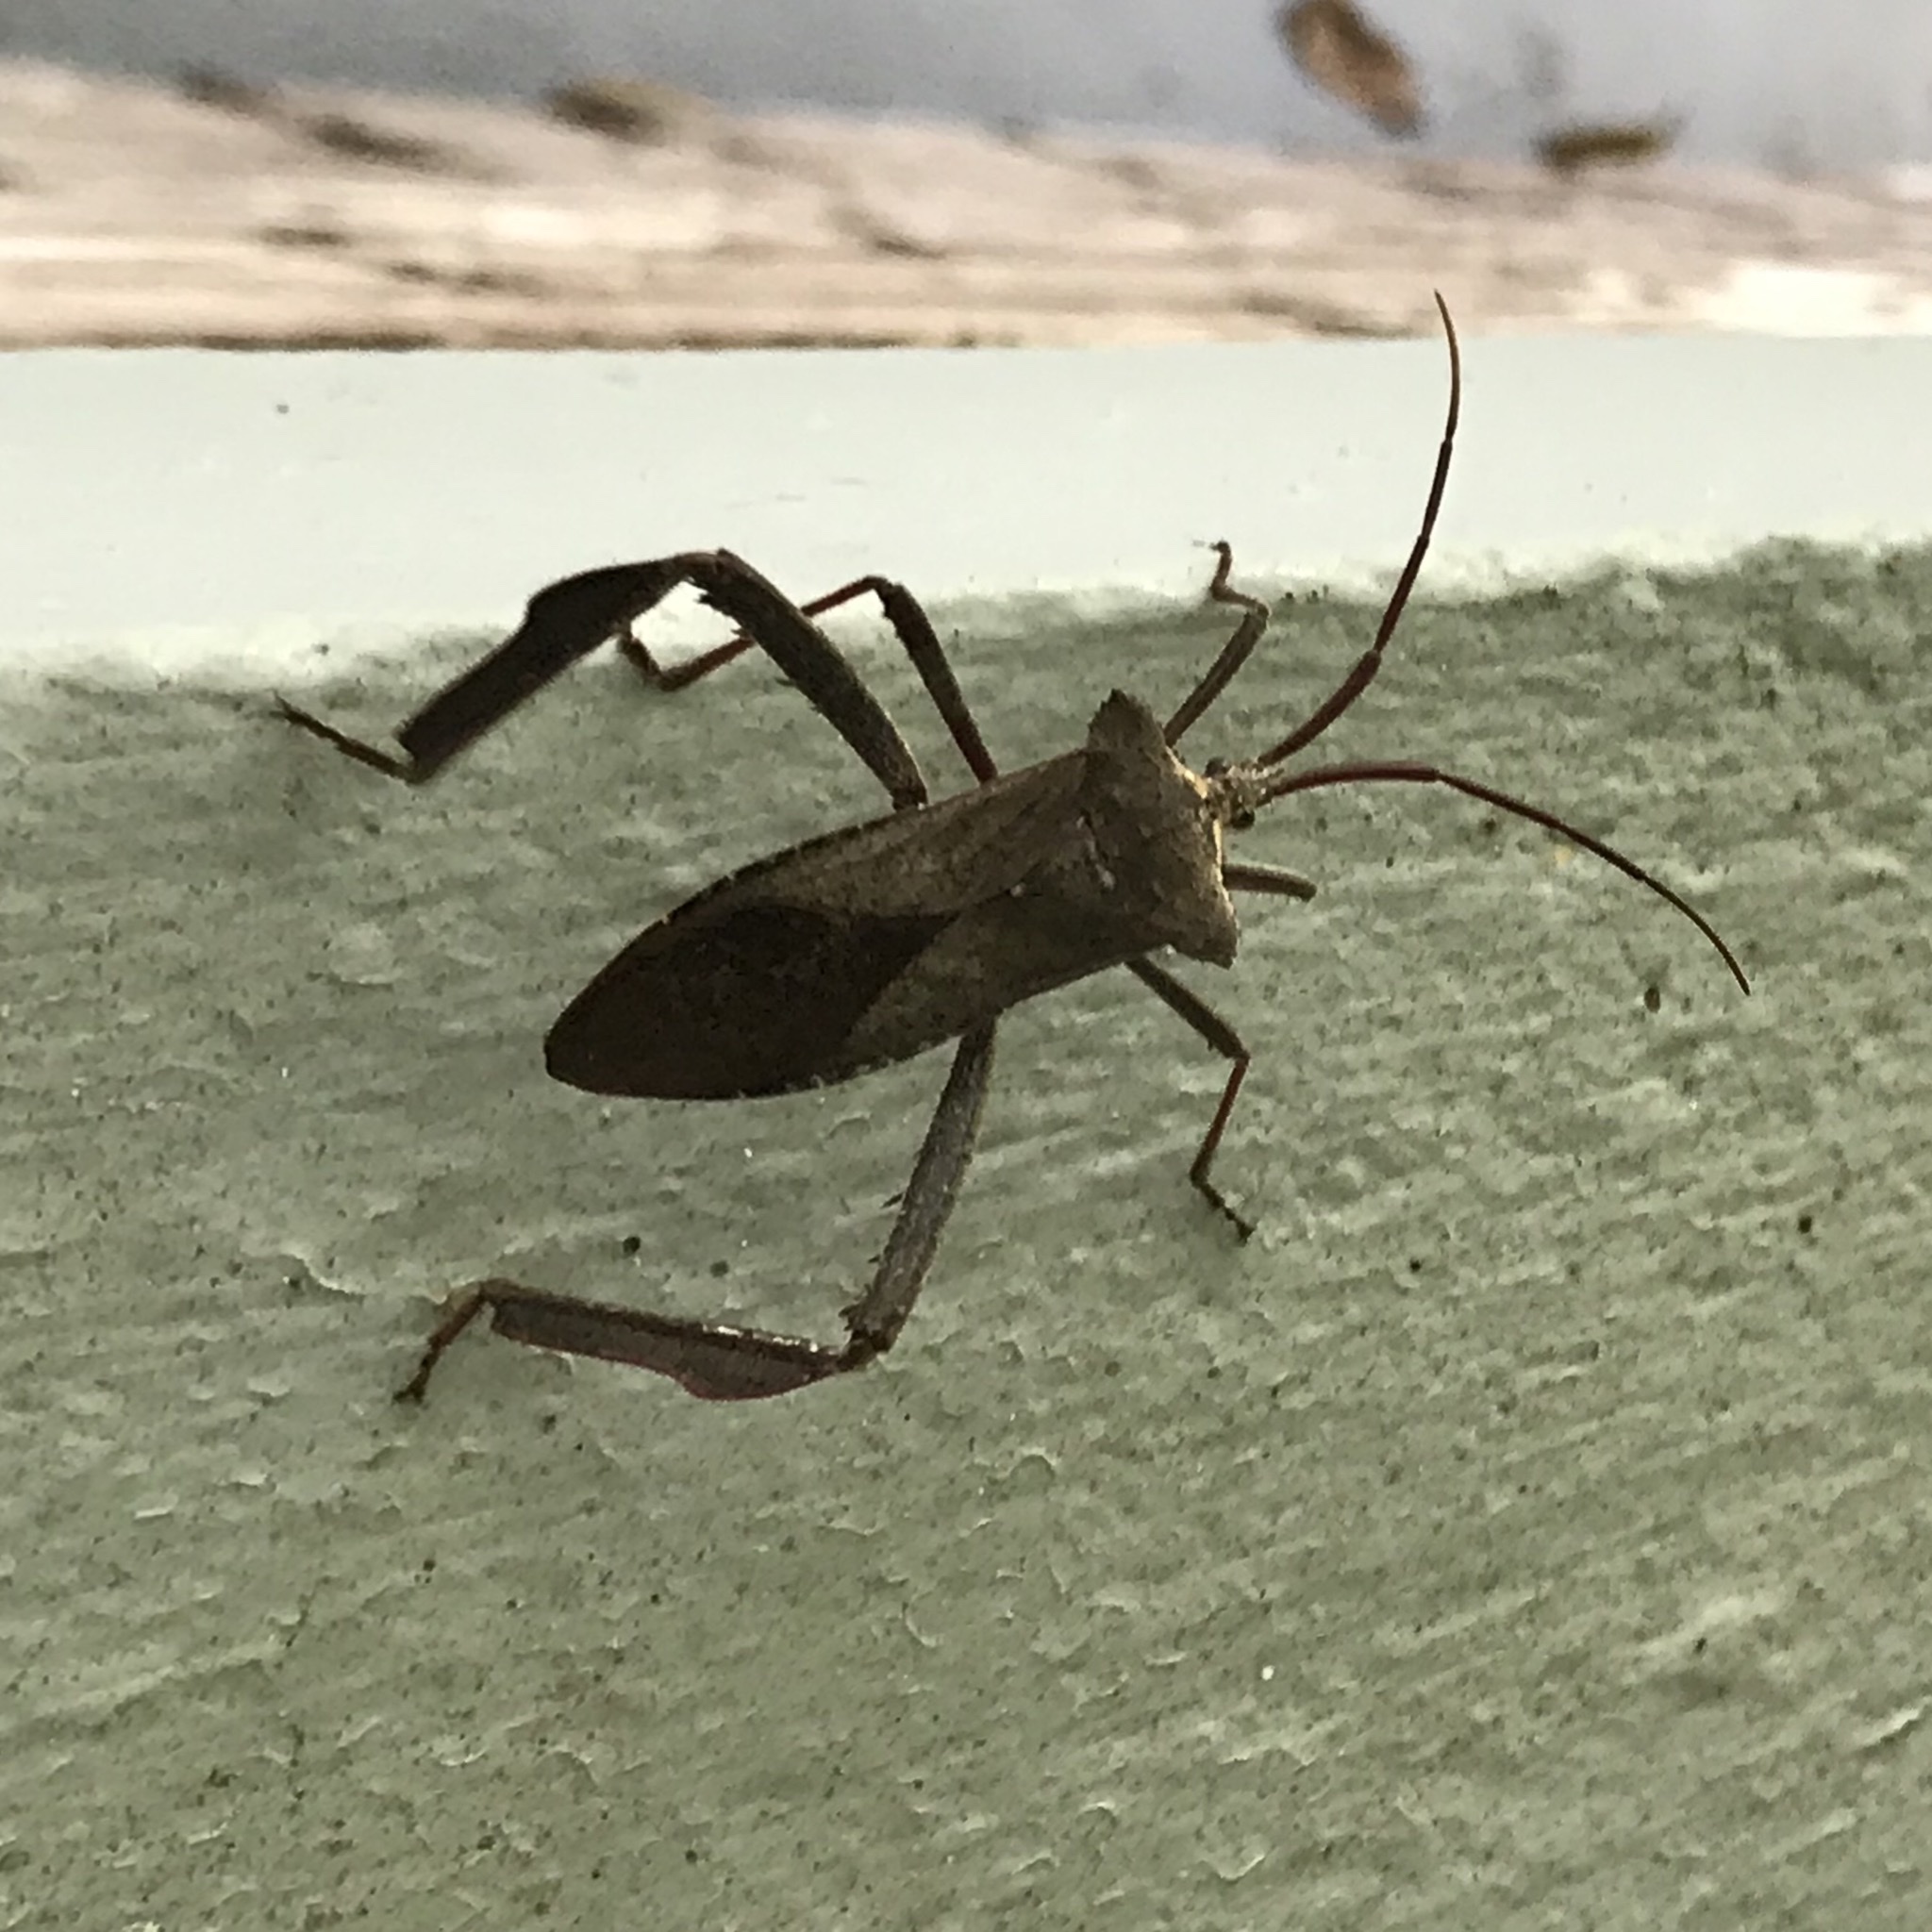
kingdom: Animalia
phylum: Arthropoda
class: Insecta
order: Hemiptera
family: Coreidae
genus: Acanthocephala
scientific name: Acanthocephala declivis
